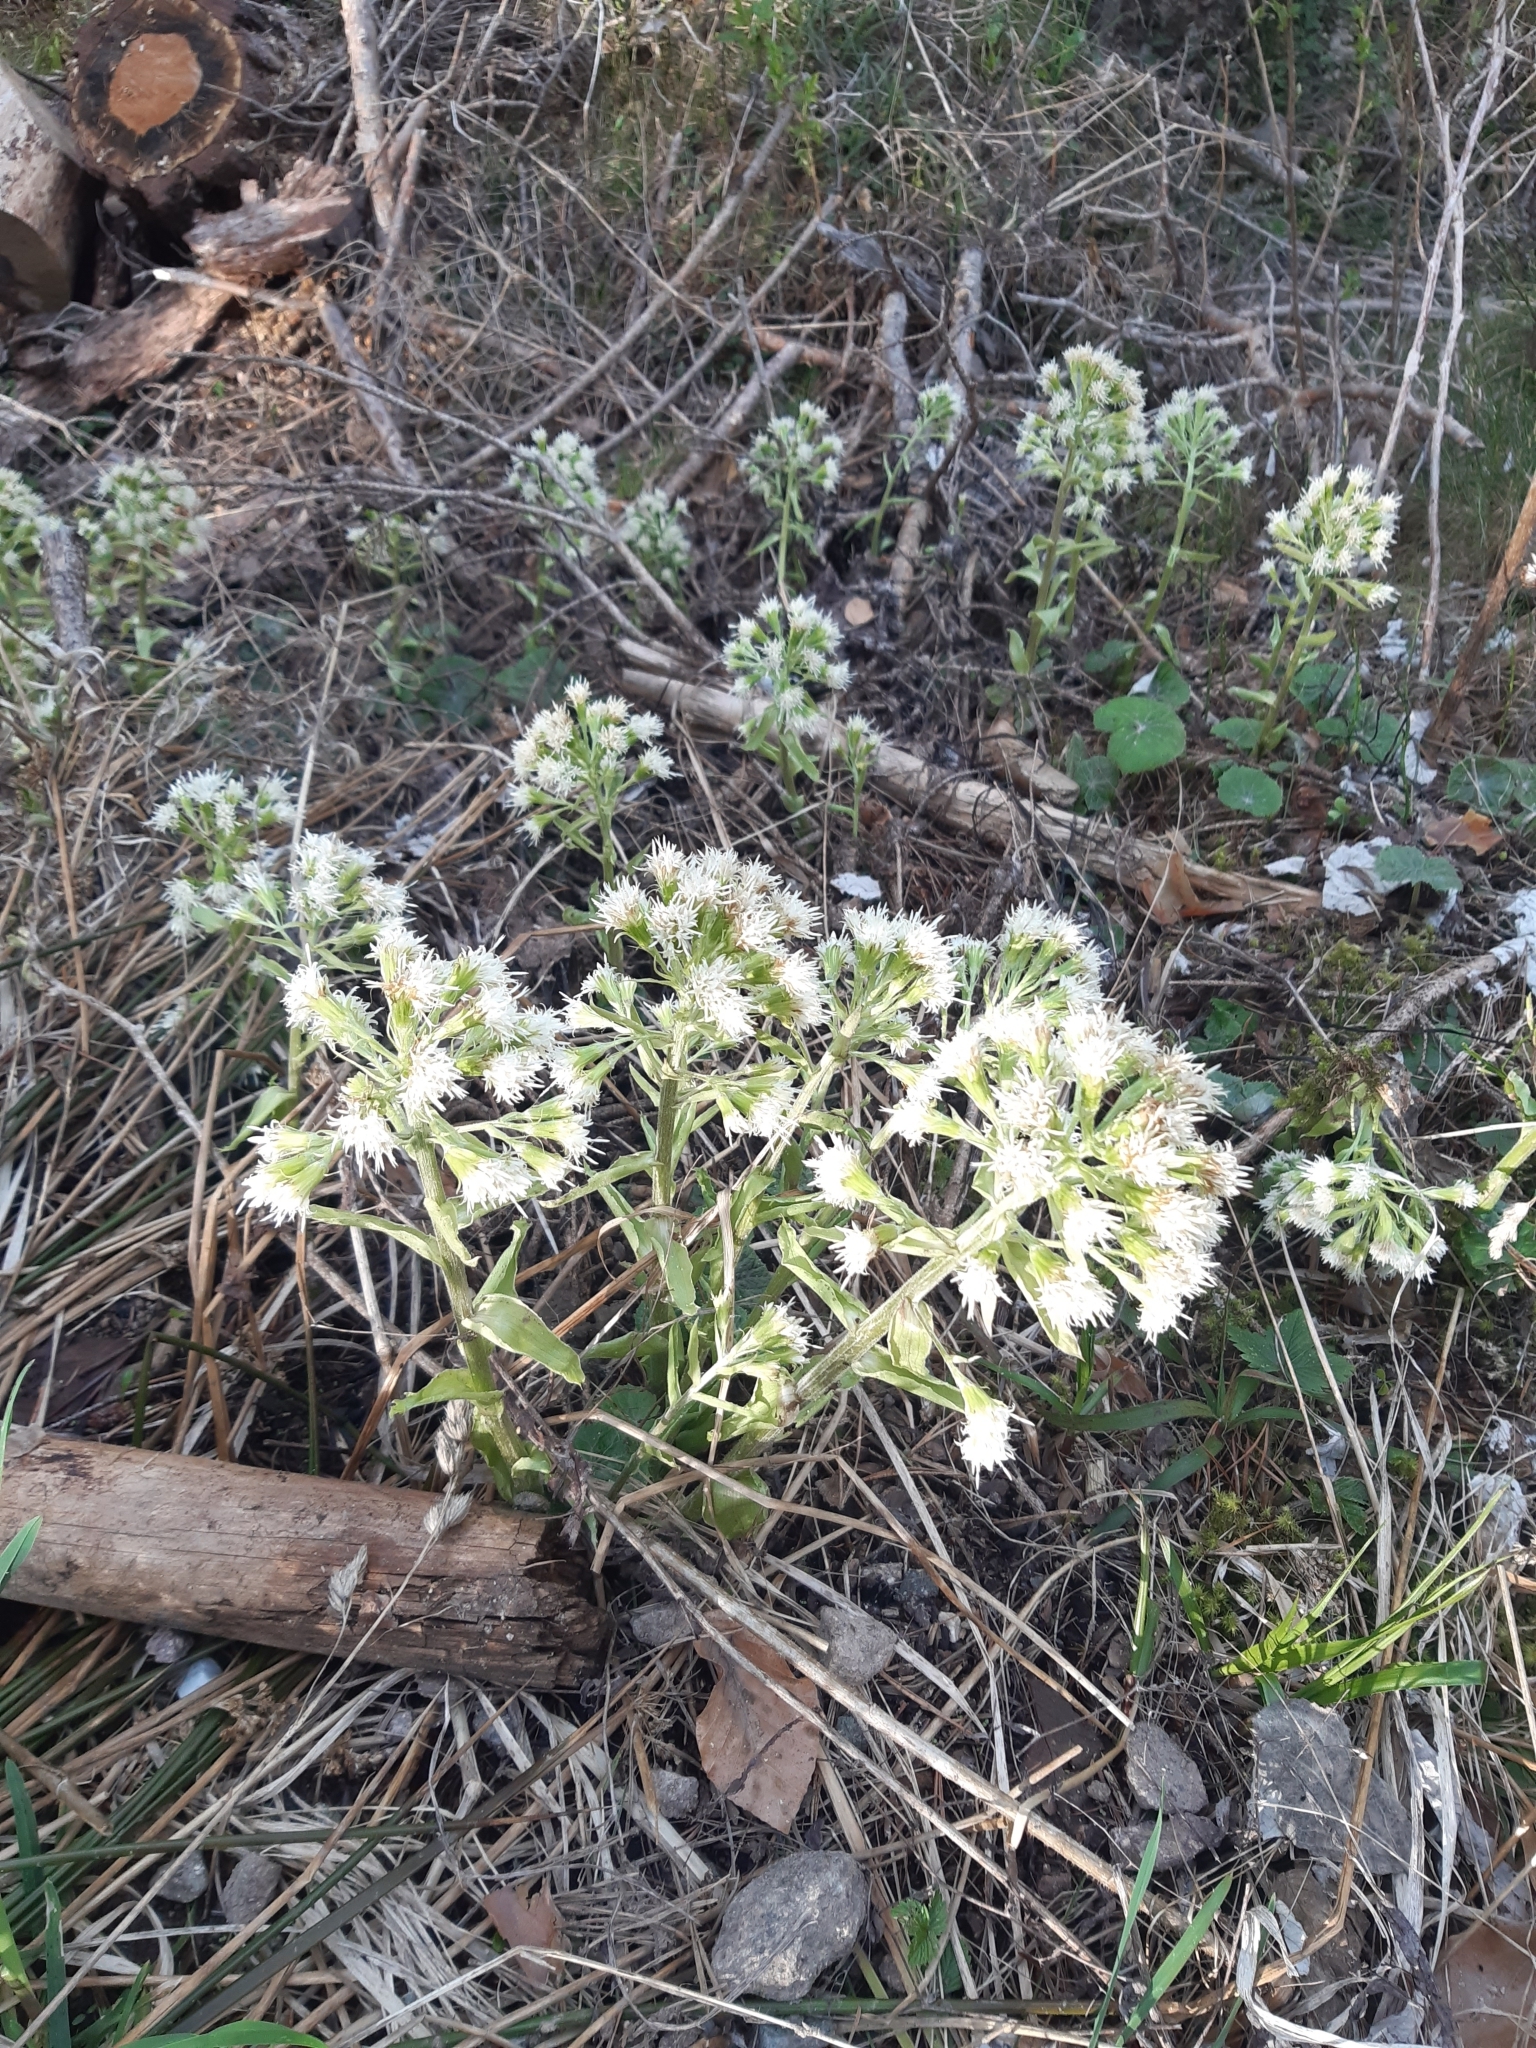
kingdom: Plantae
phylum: Tracheophyta
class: Magnoliopsida
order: Asterales
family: Asteraceae
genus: Petasites
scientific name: Petasites albus
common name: White butterbur
